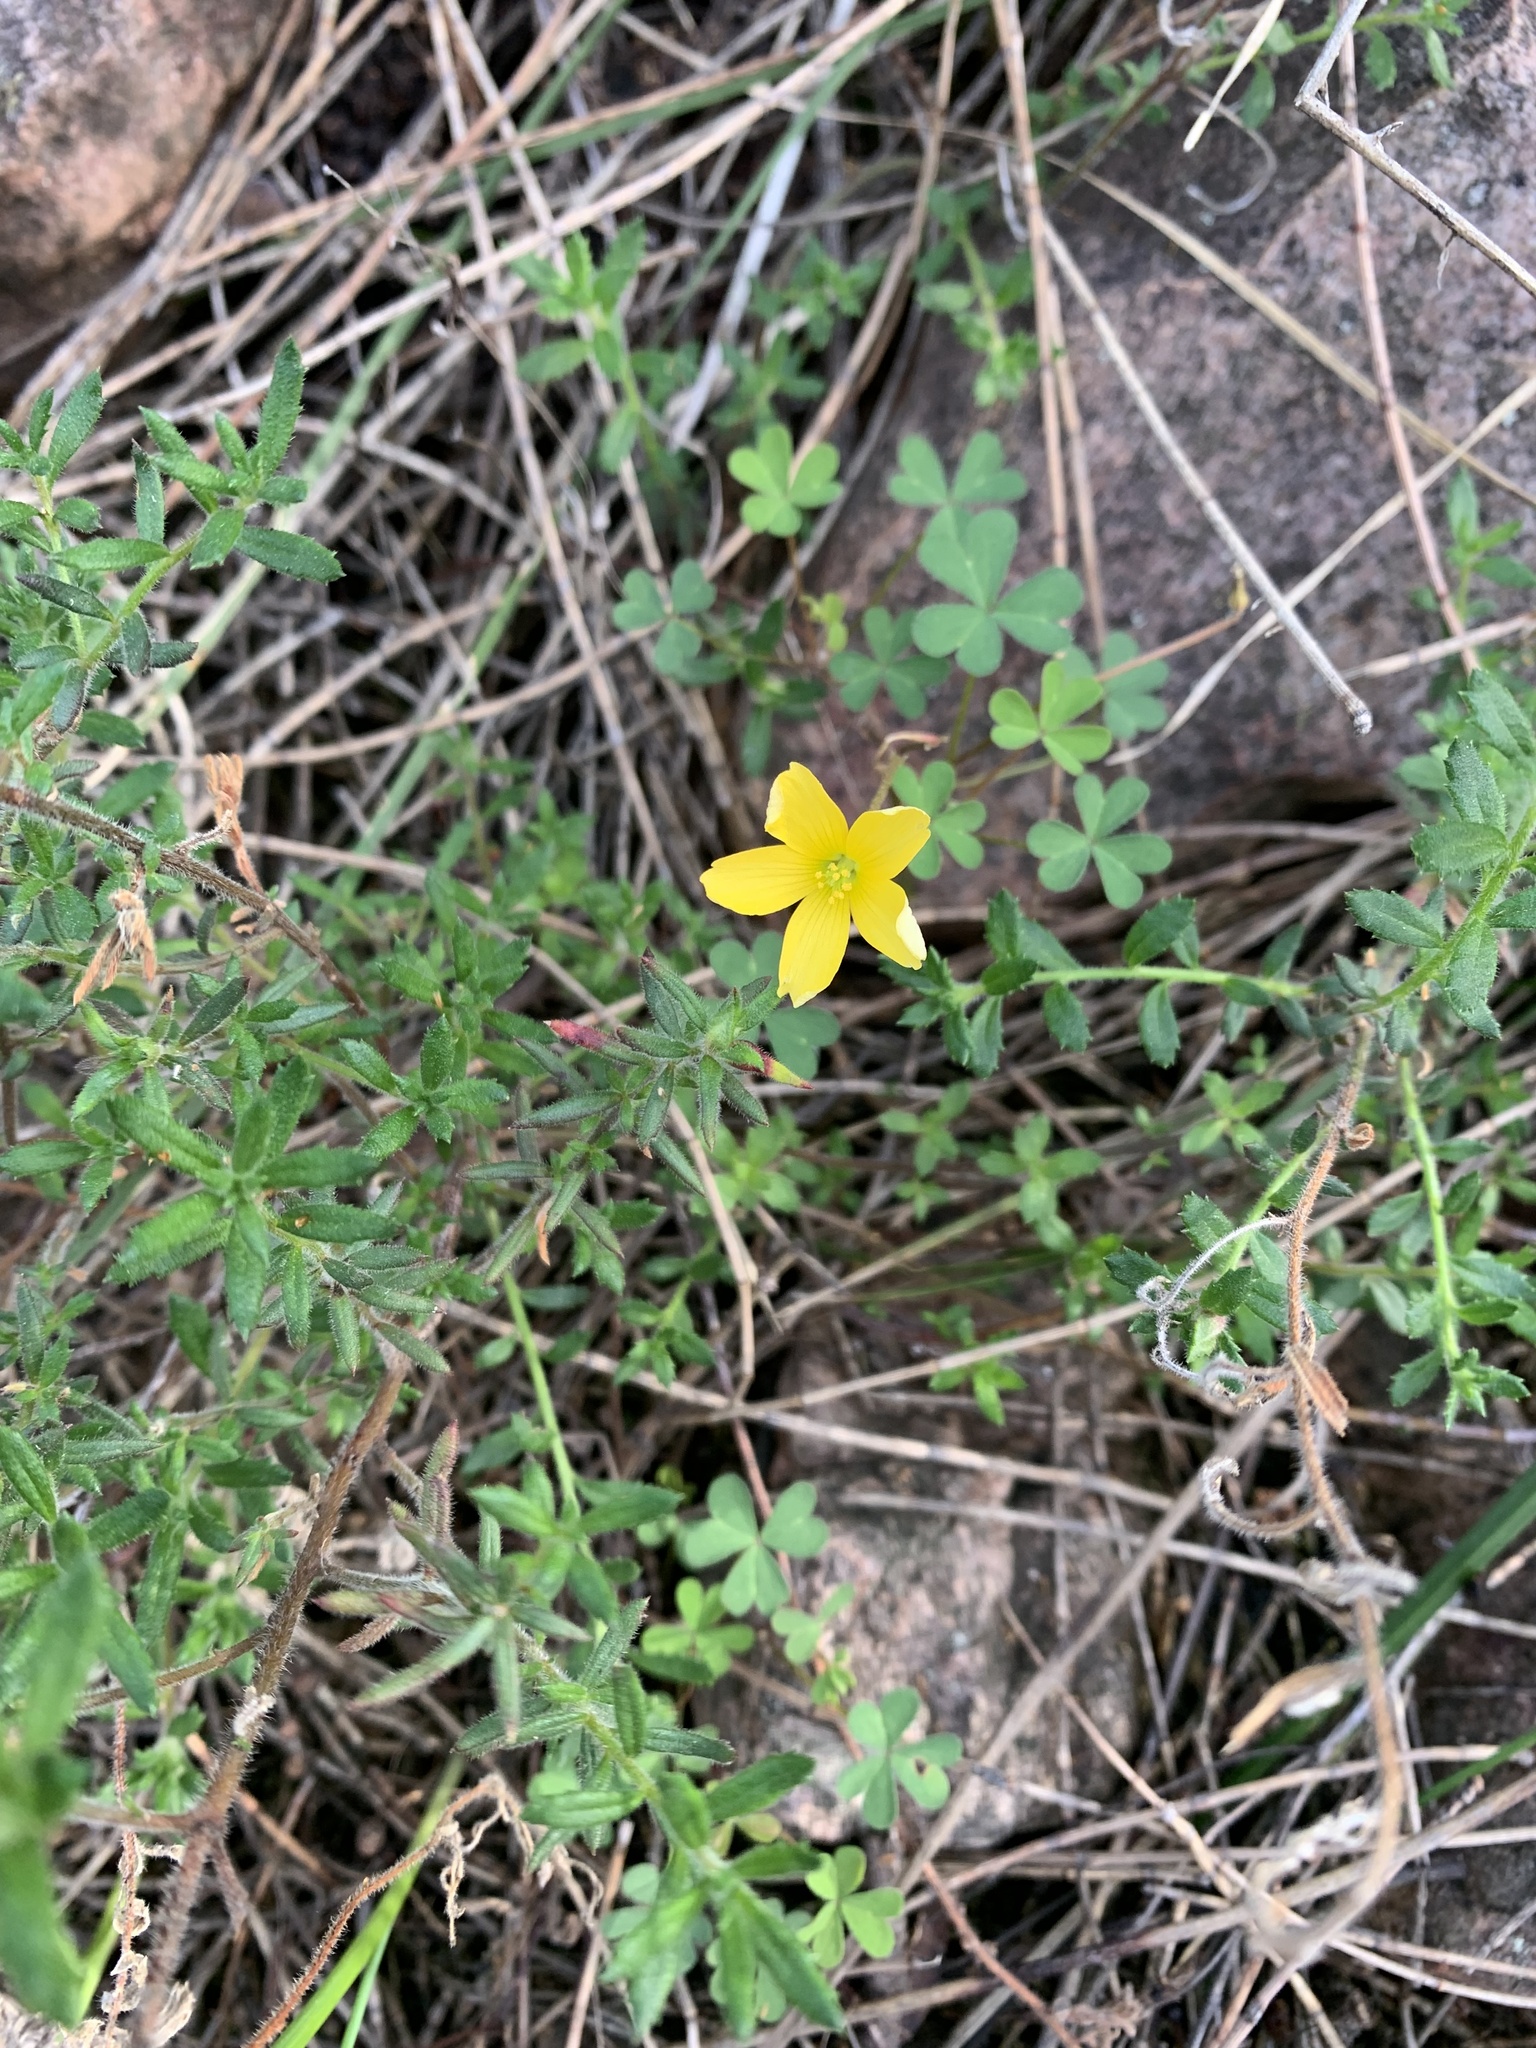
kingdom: Plantae
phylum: Tracheophyta
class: Magnoliopsida
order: Oxalidales
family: Oxalidaceae
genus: Oxalis
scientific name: Oxalis perennans
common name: Woody-rooted yellow-sorrel
